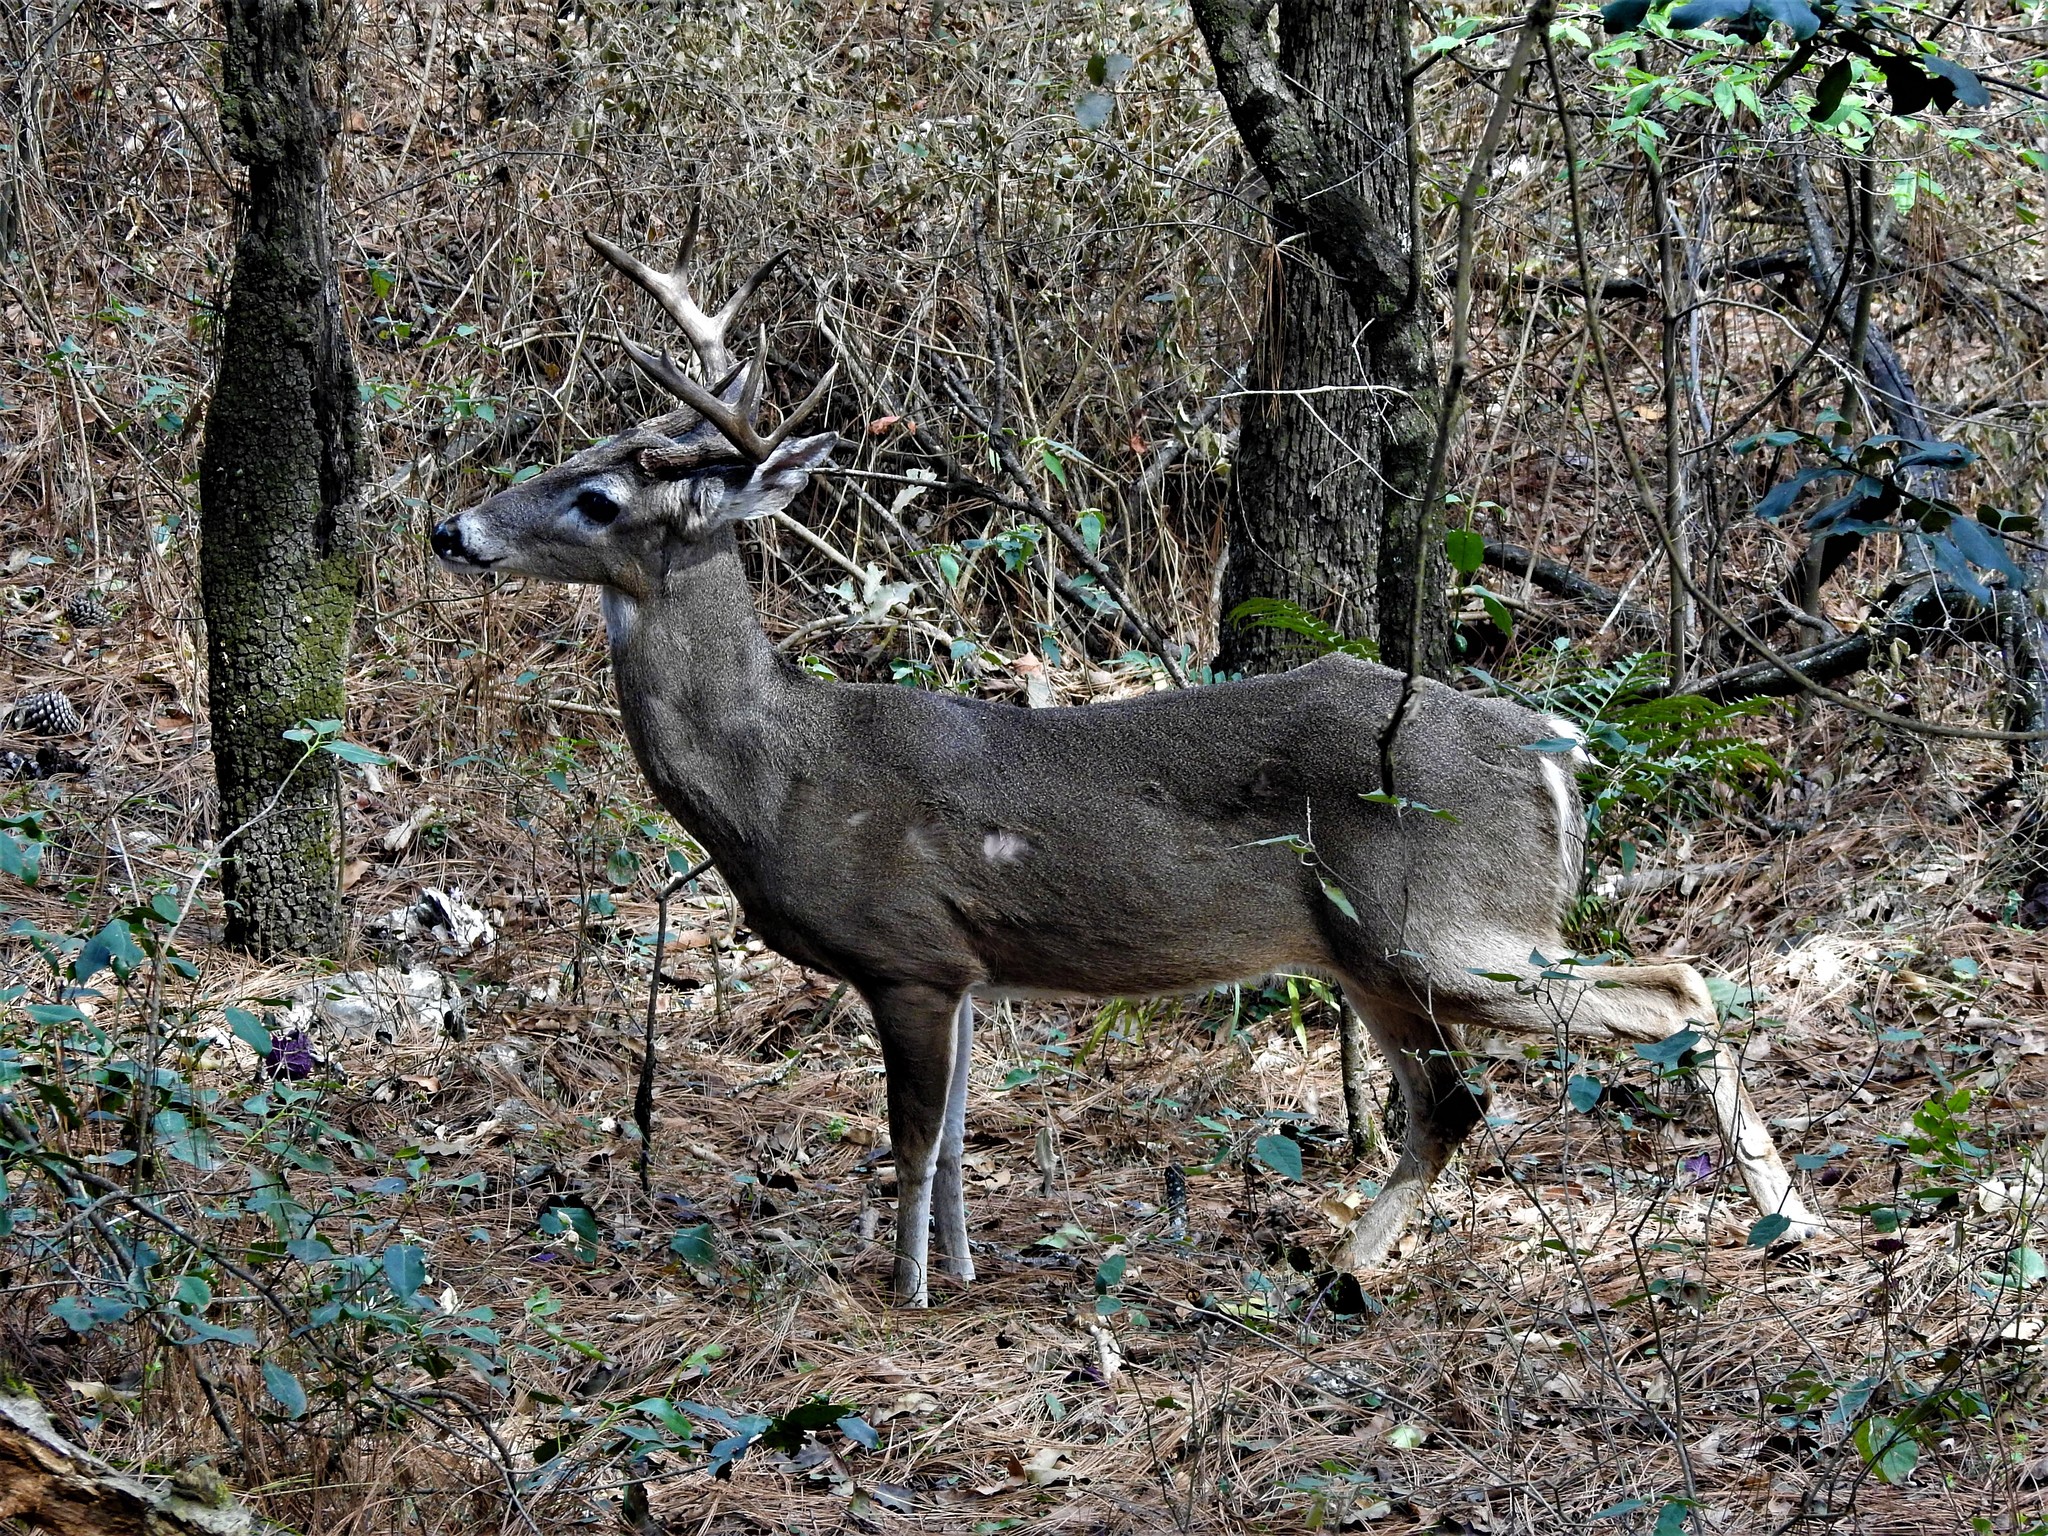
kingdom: Animalia
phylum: Chordata
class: Mammalia
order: Artiodactyla
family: Cervidae
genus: Odocoileus
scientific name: Odocoileus virginianus
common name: White-tailed deer
